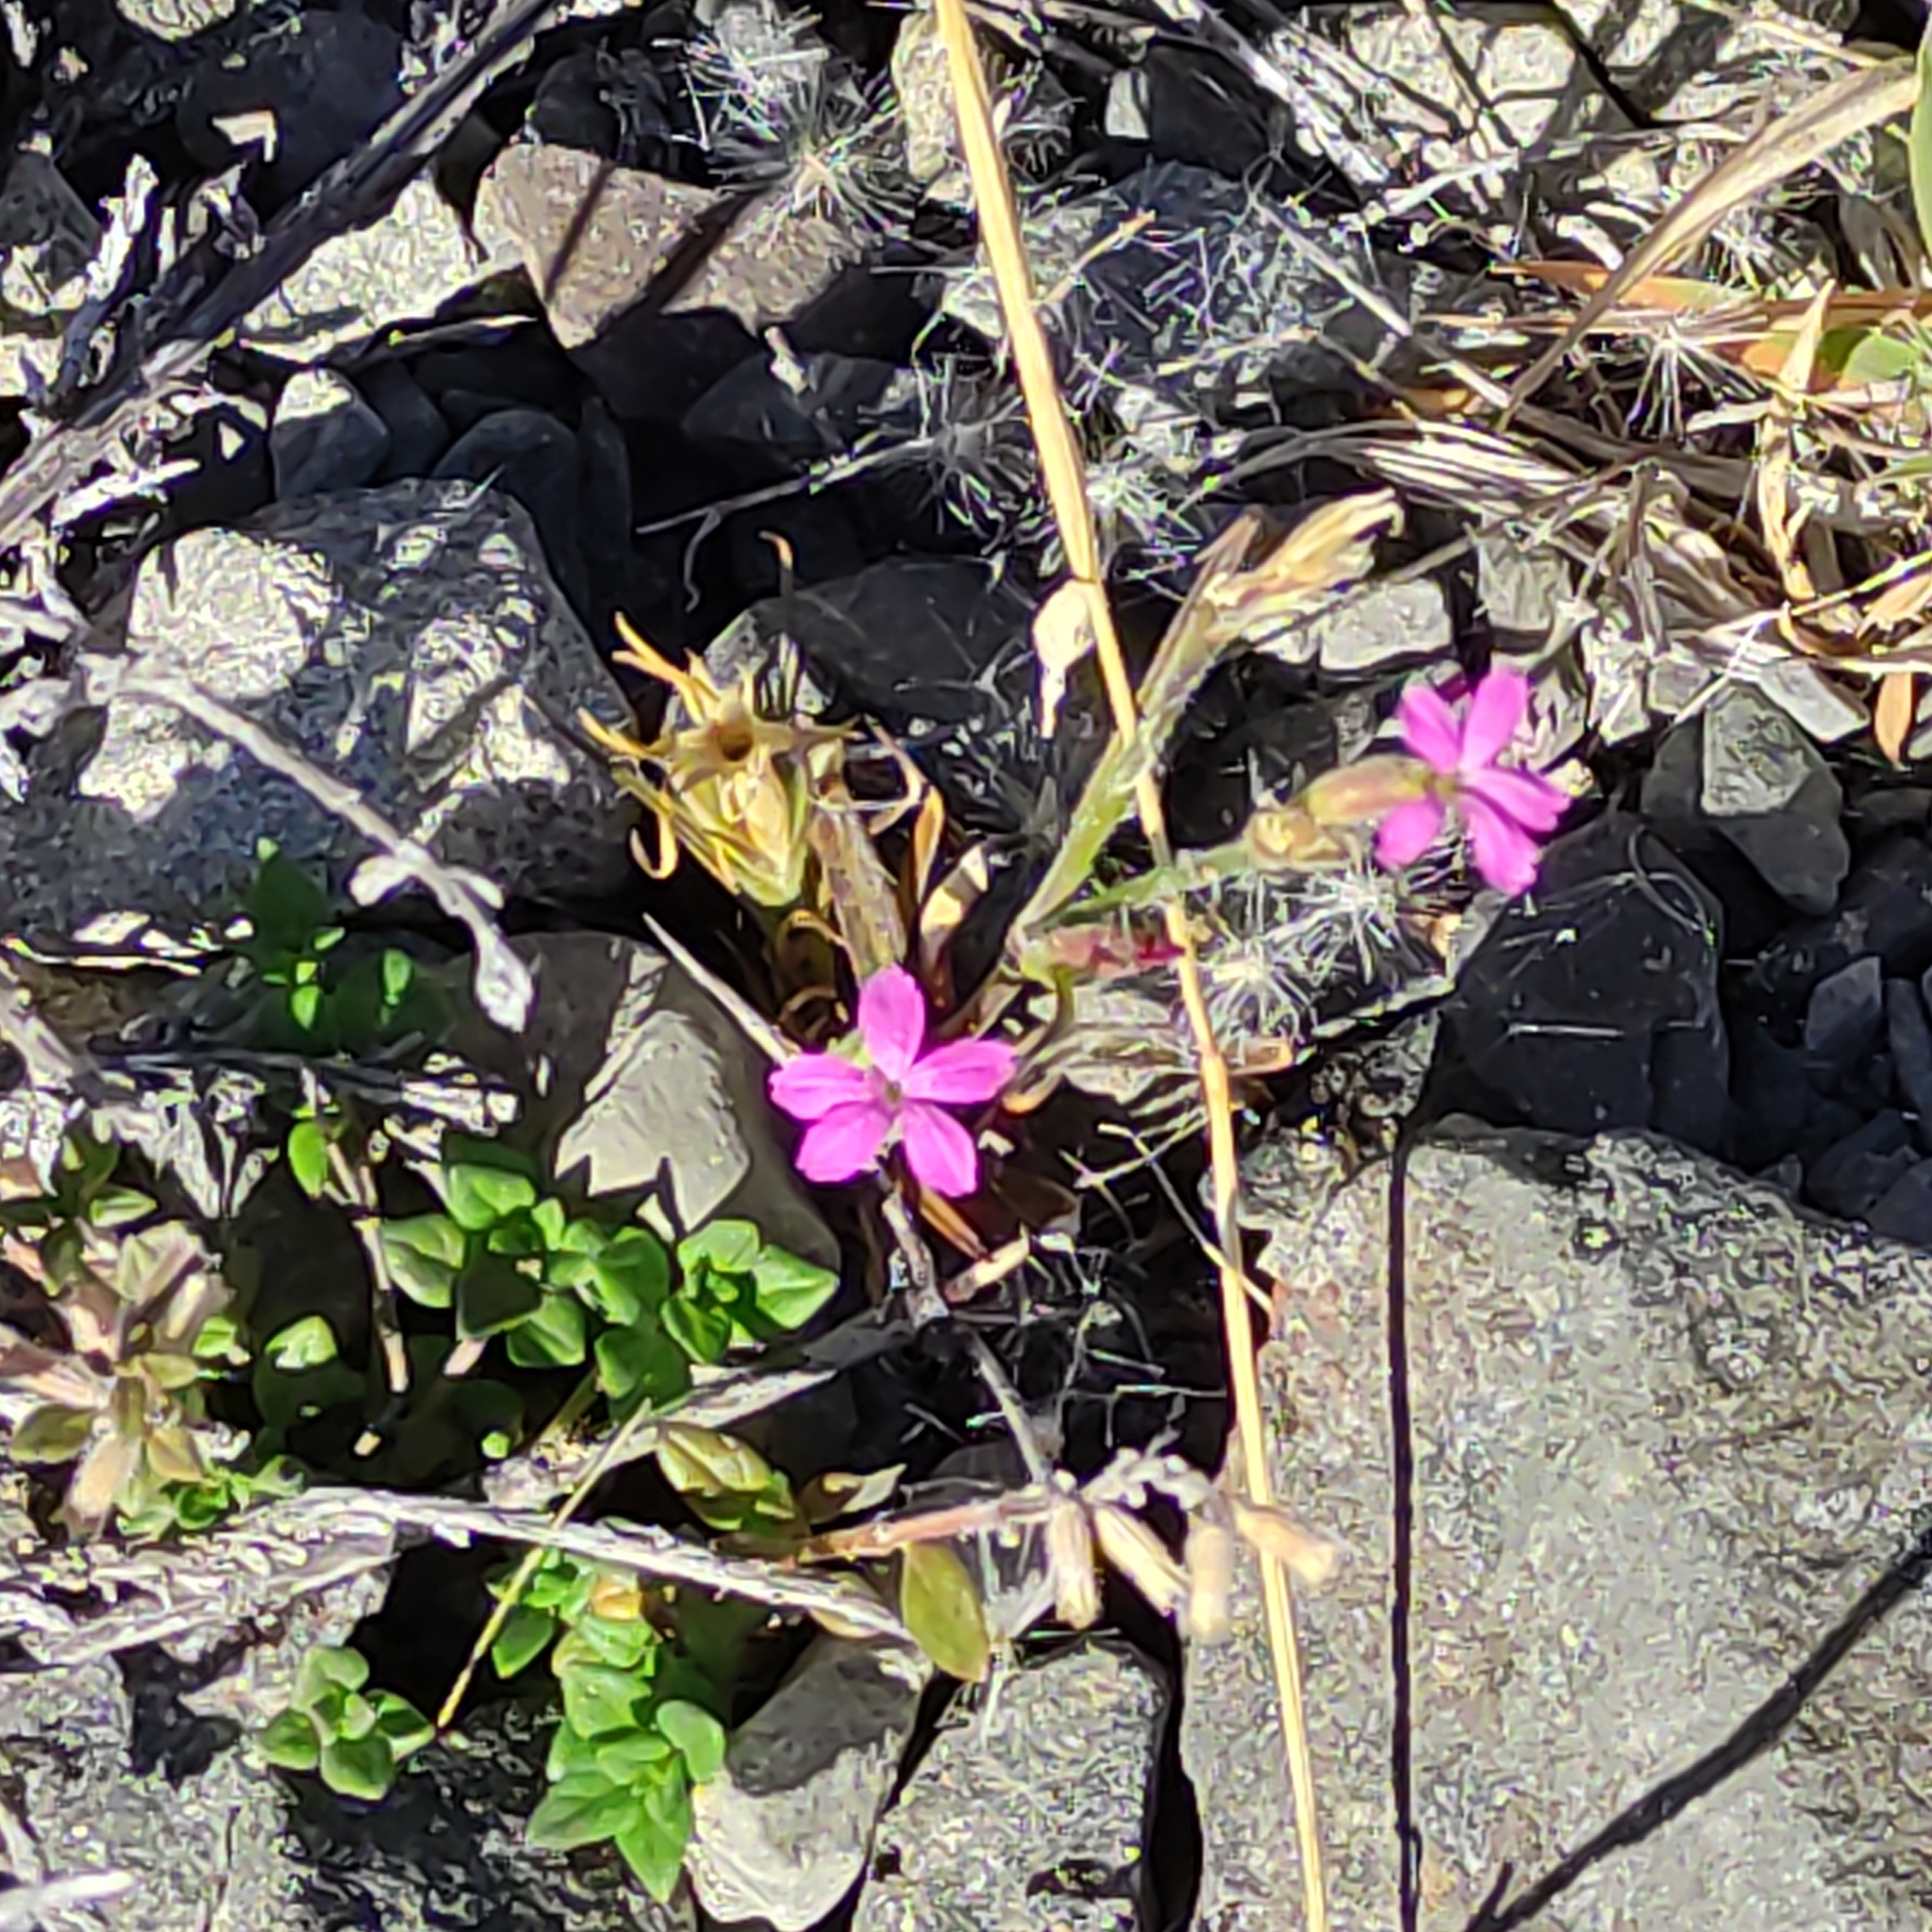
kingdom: Plantae
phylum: Tracheophyta
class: Magnoliopsida
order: Caryophyllales
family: Caryophyllaceae
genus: Dianthus
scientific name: Dianthus armeria
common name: Deptford pink
